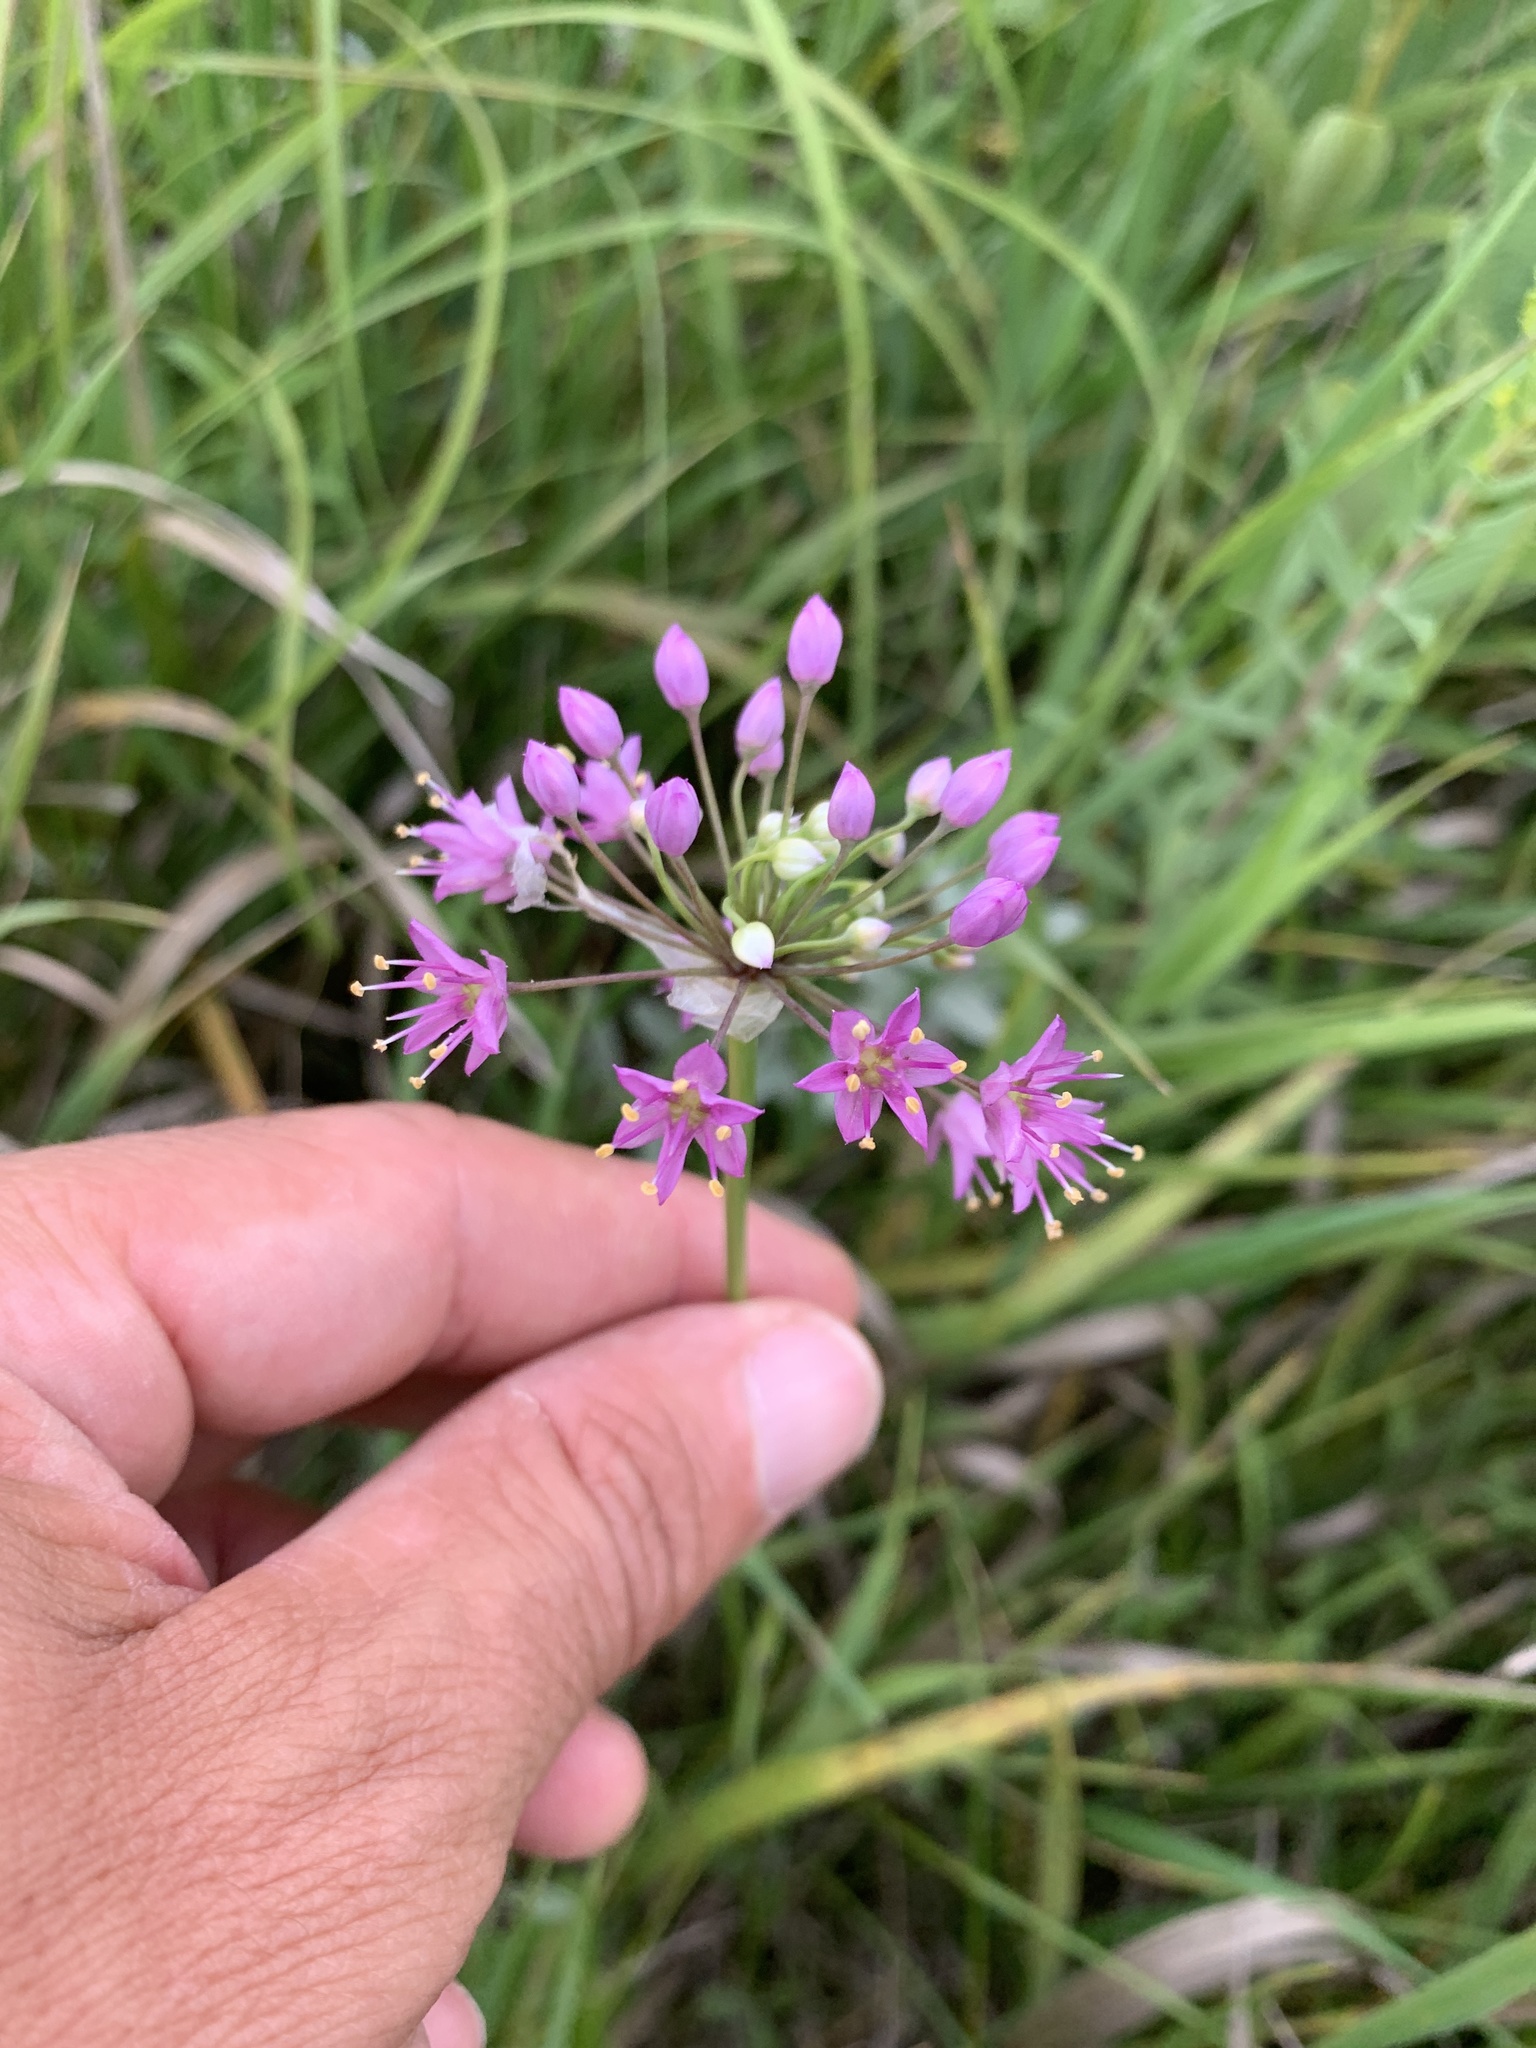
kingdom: Plantae
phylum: Tracheophyta
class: Liliopsida
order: Asparagales
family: Amaryllidaceae
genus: Allium
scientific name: Allium stellatum
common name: Autumn onion
